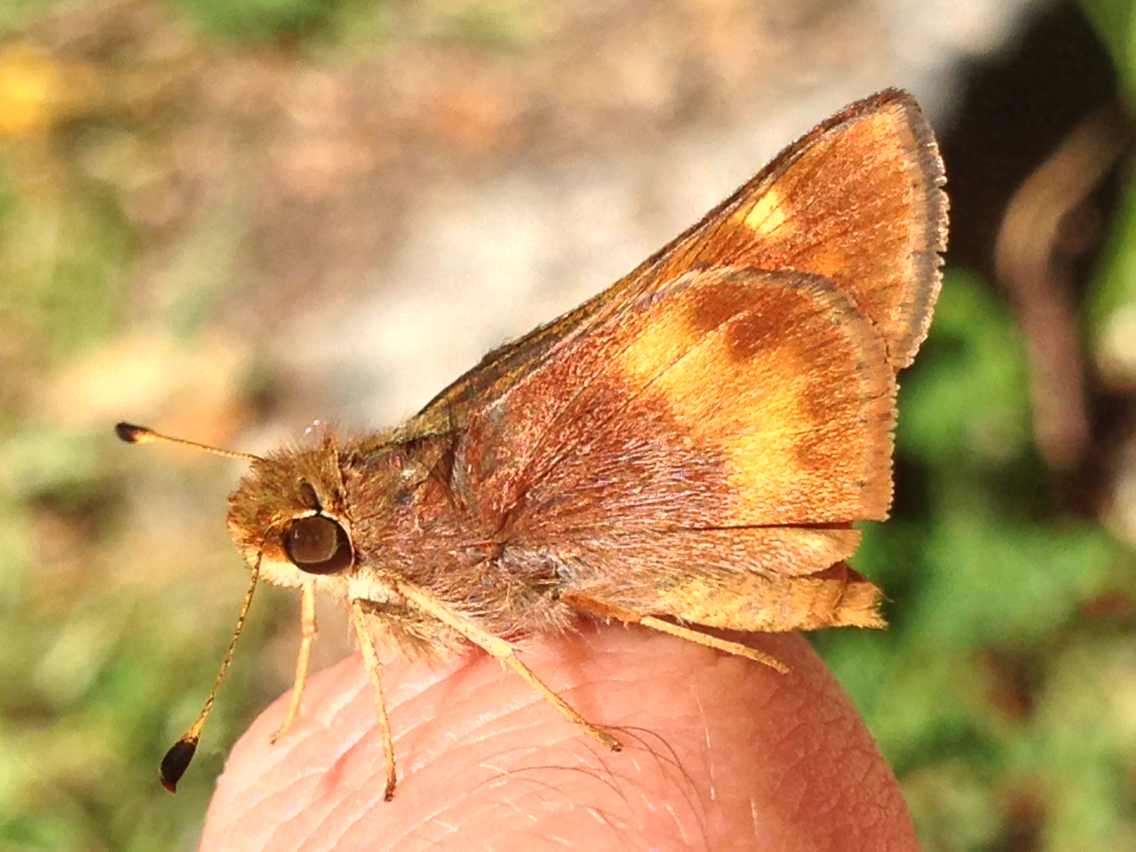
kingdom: Animalia
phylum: Arthropoda
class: Insecta
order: Lepidoptera
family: Hesperiidae
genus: Lon
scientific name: Lon melane
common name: Umber skipper
